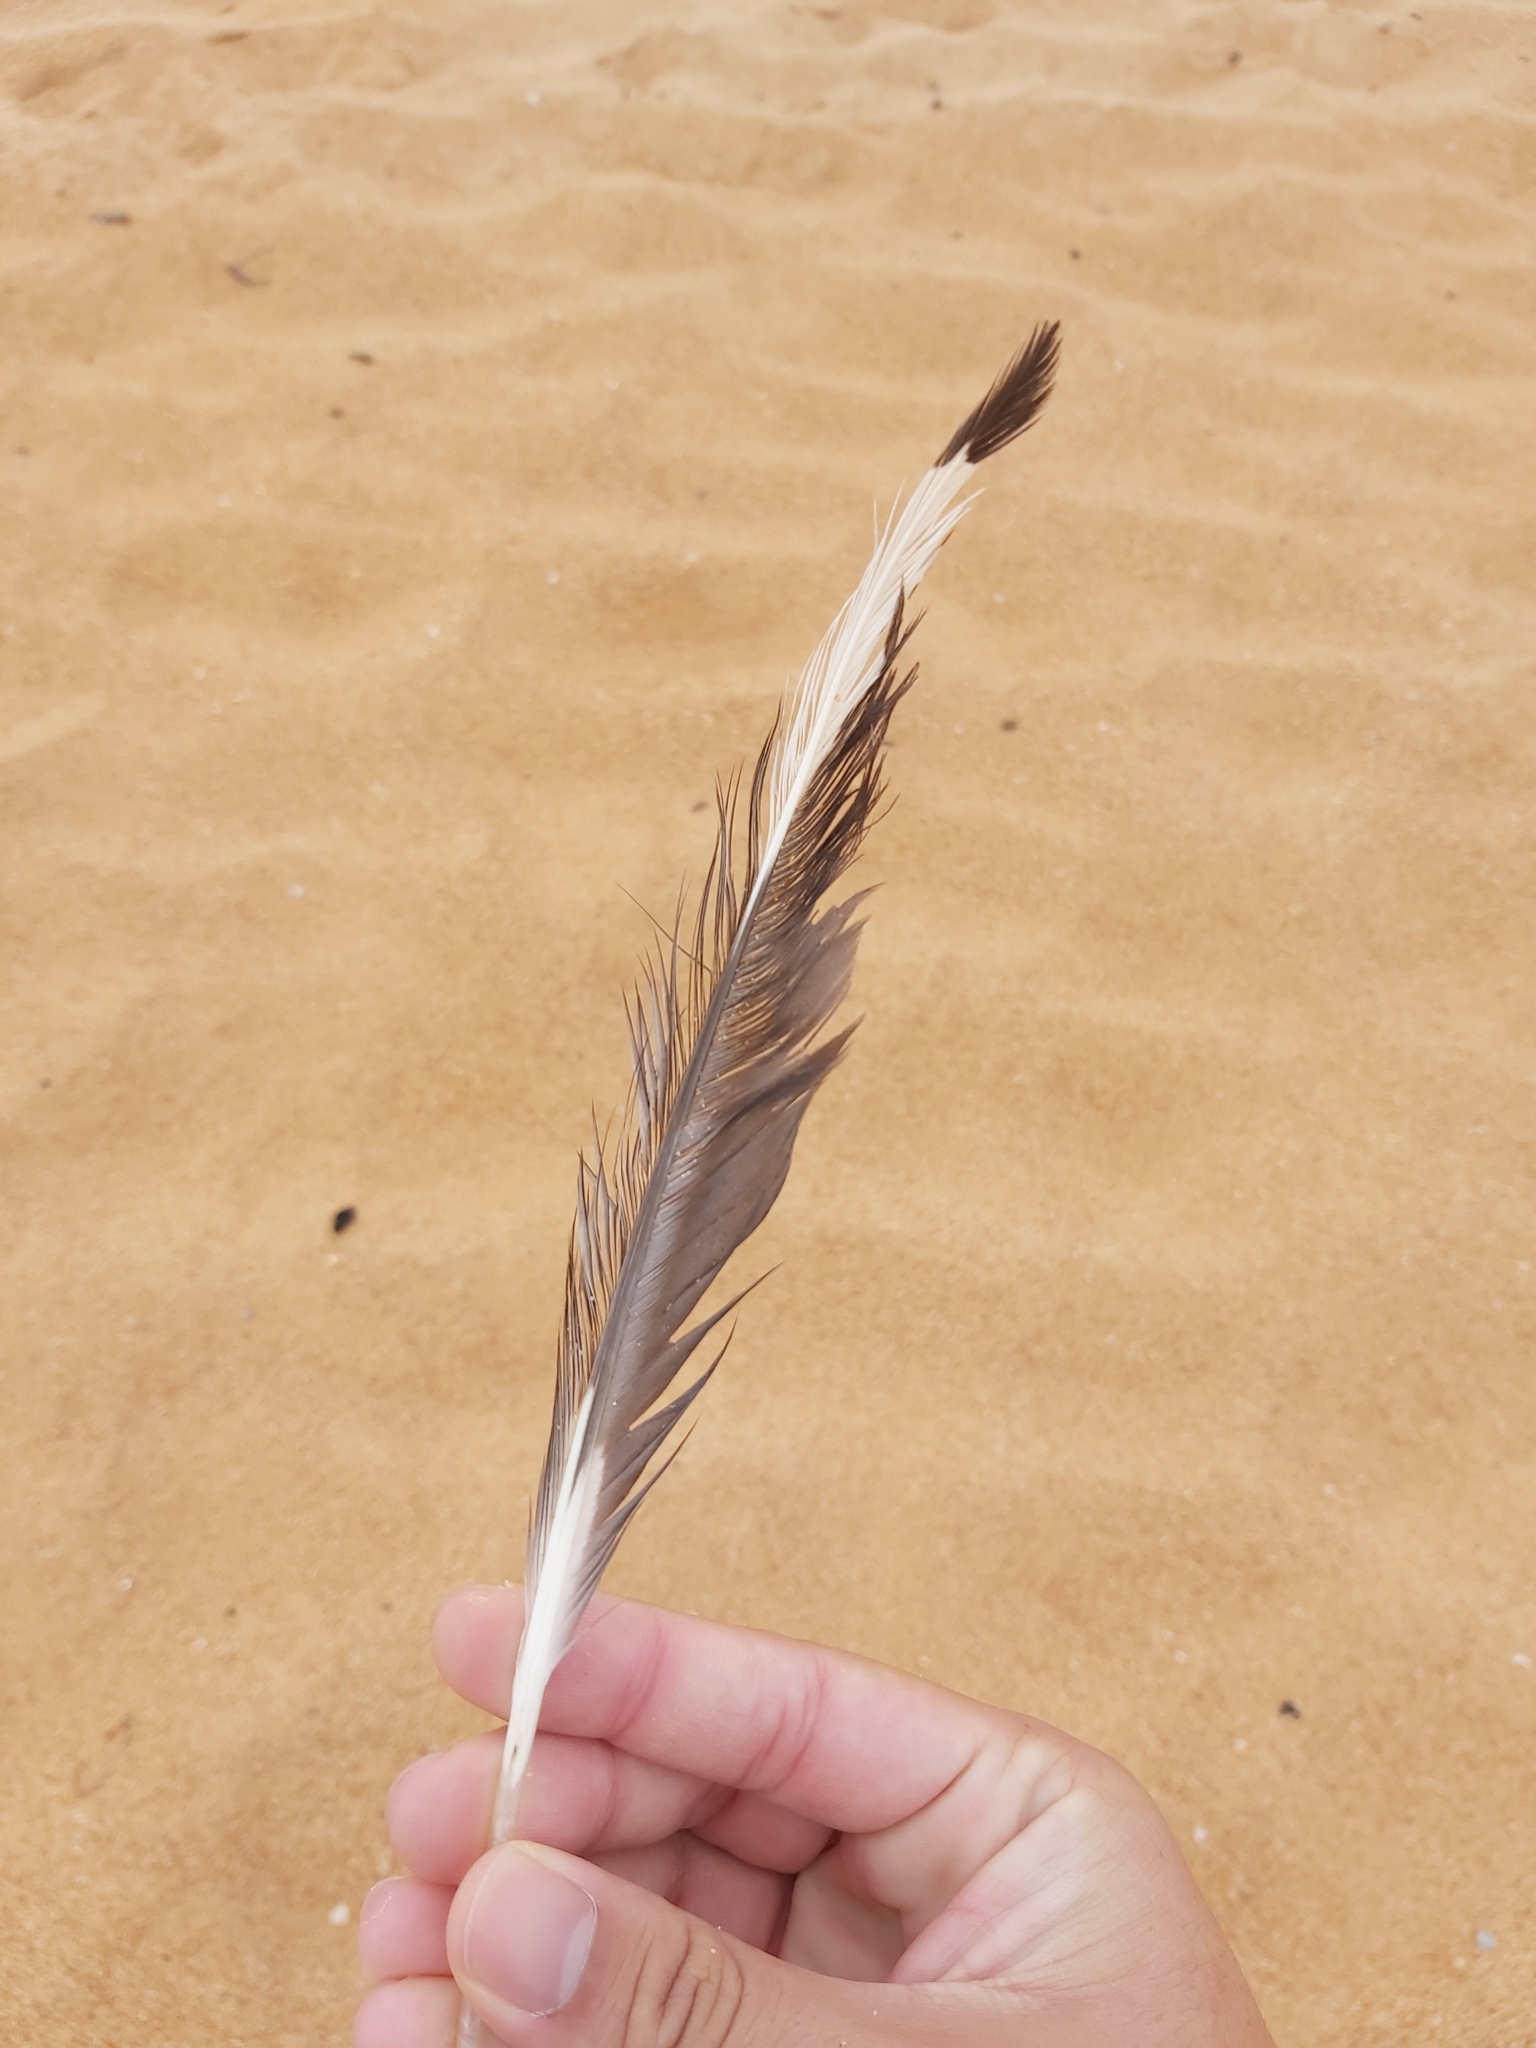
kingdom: Animalia
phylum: Chordata
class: Aves
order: Charadriiformes
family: Laridae
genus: Chroicocephalus
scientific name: Chroicocephalus novaehollandiae
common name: Silver gull
